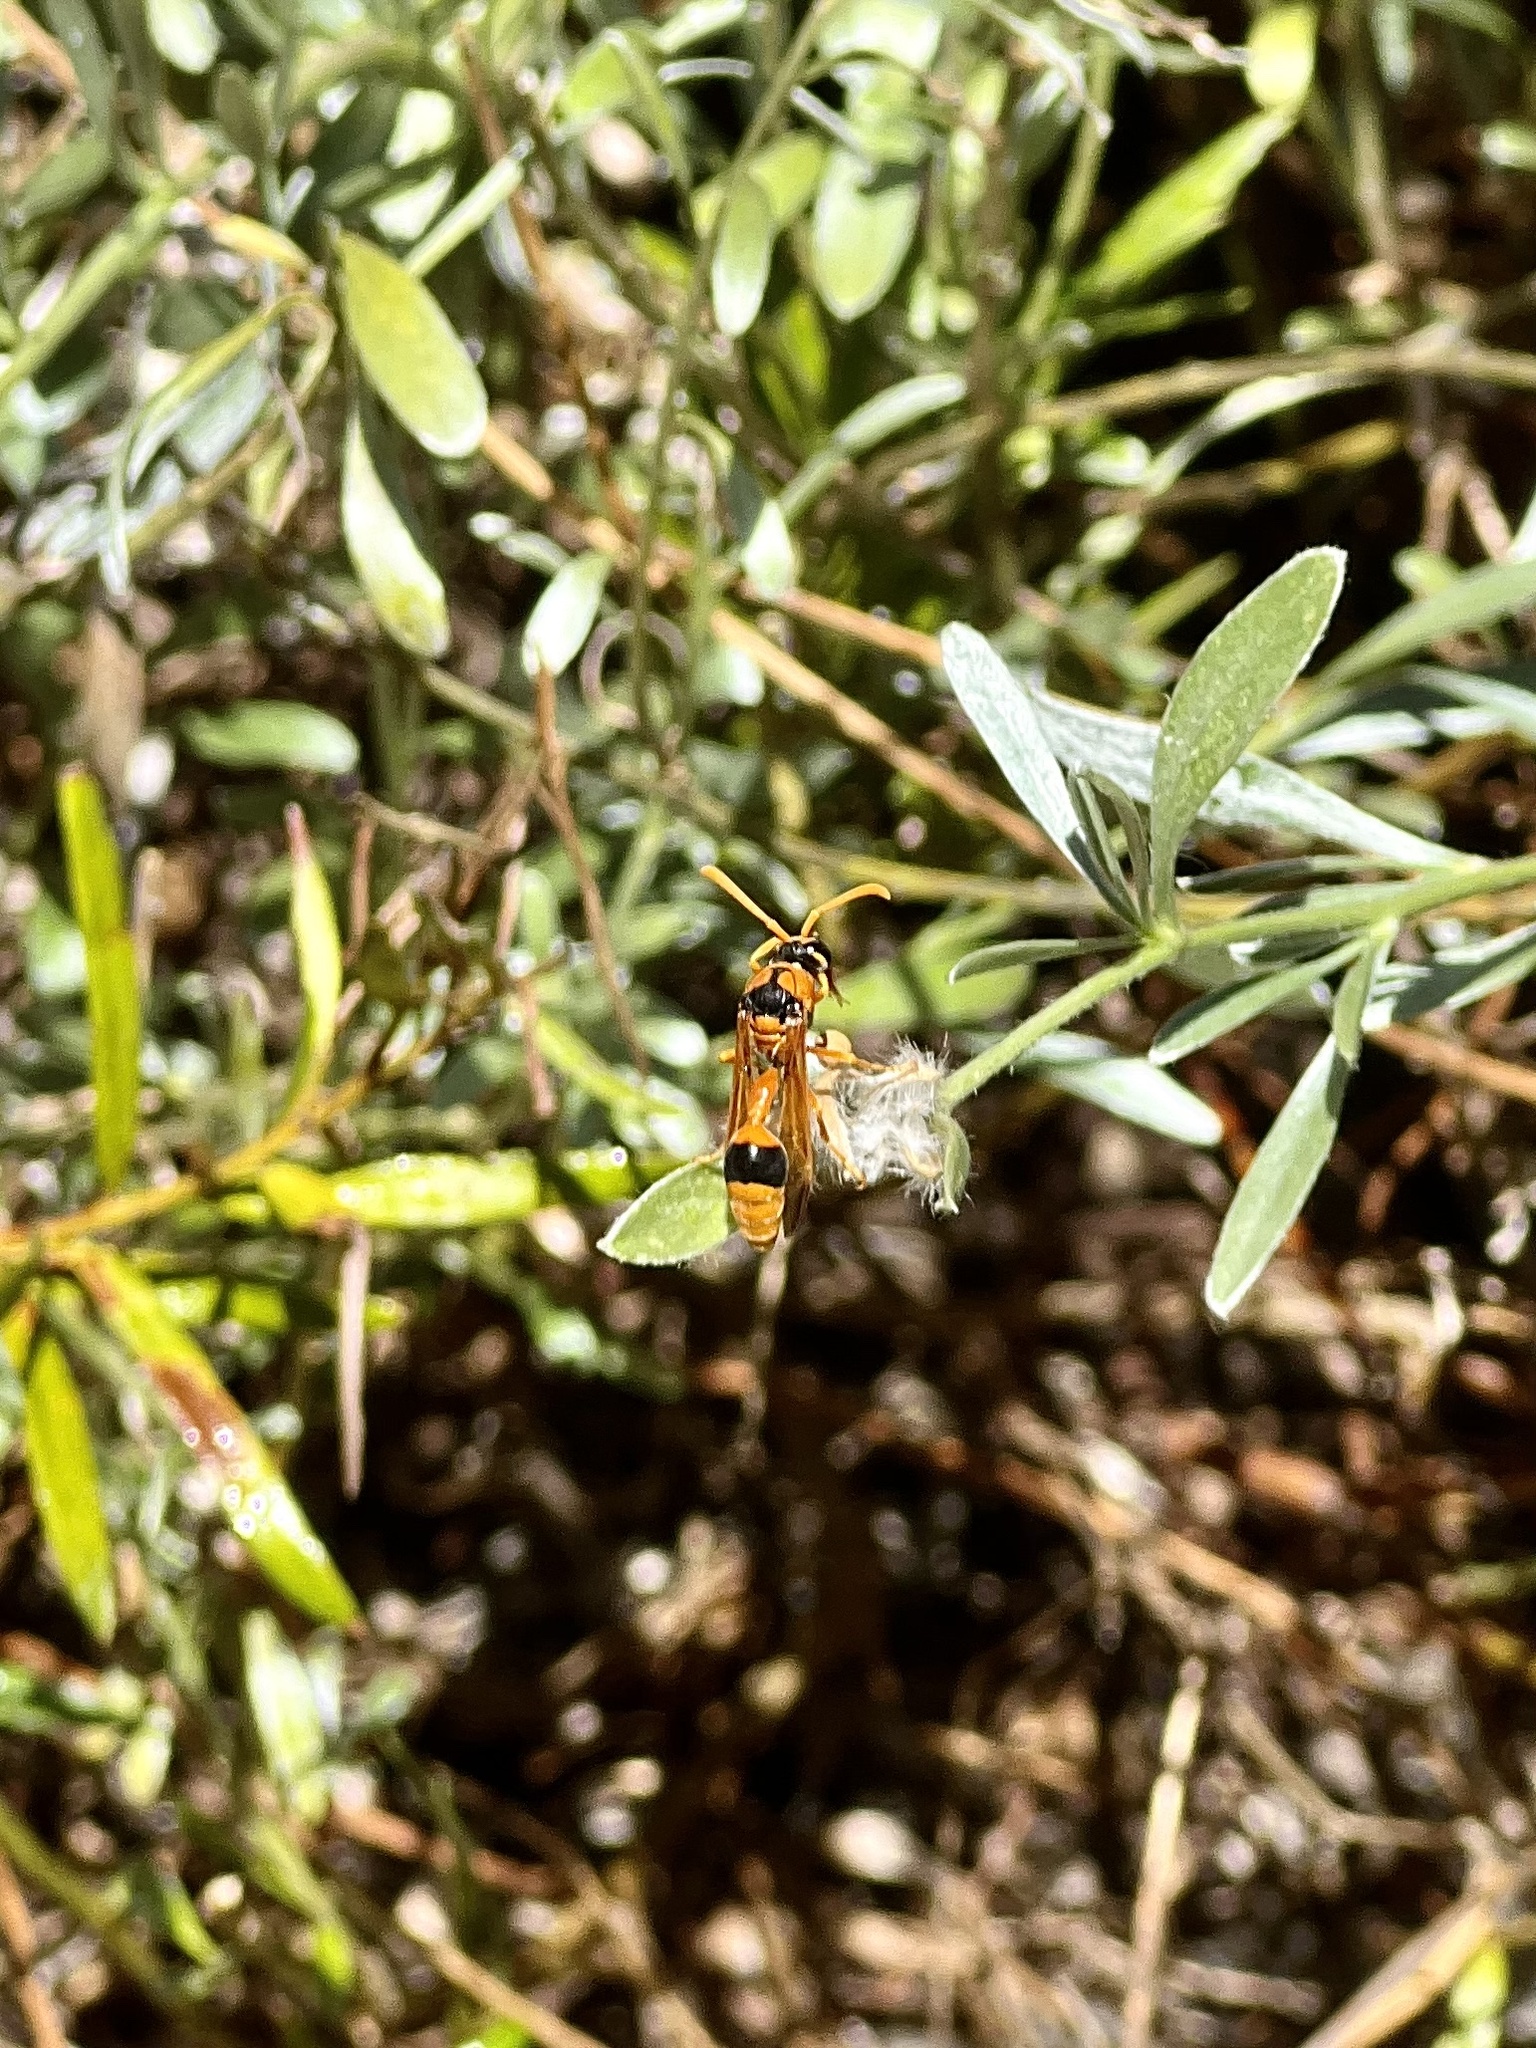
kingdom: Animalia
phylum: Arthropoda
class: Insecta
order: Hymenoptera
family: Eumenidae
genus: Delta
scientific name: Delta bicinctum
